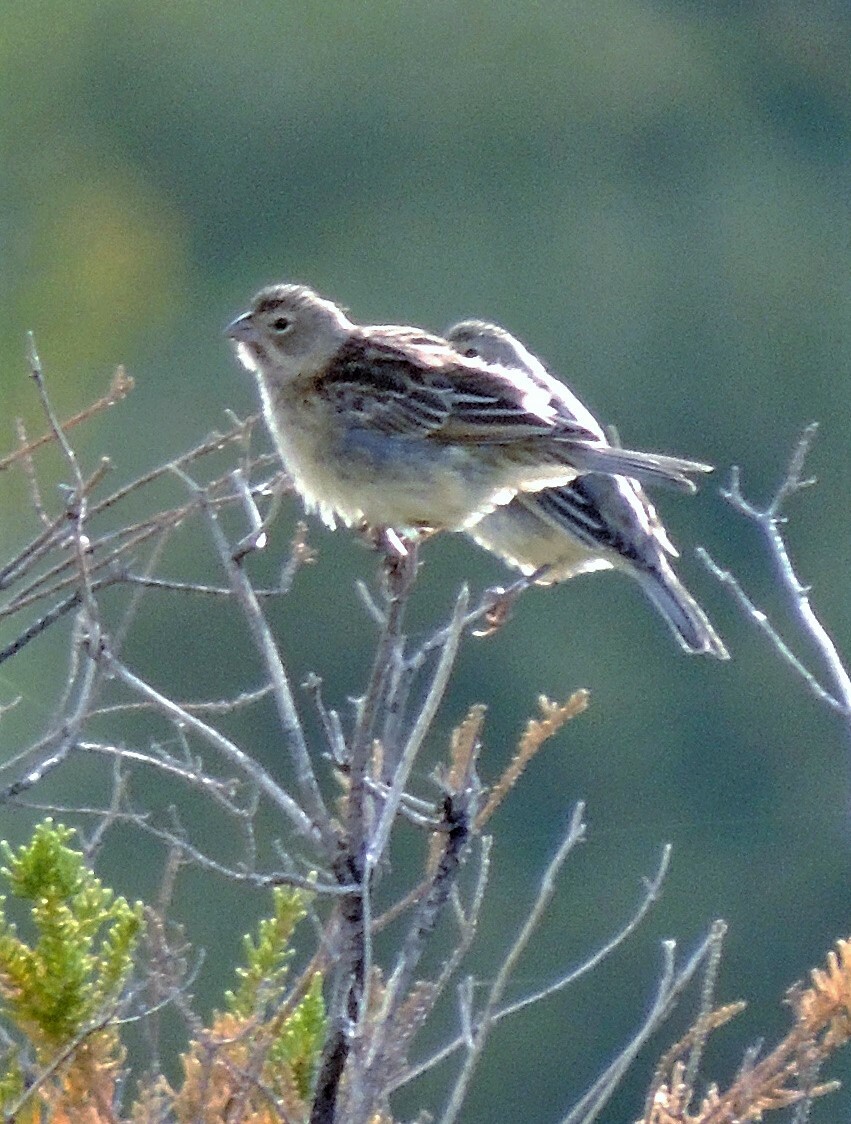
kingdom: Animalia
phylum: Chordata
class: Aves
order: Passeriformes
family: Thraupidae
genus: Sicalis
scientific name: Sicalis luteola
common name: Grassland yellow-finch
